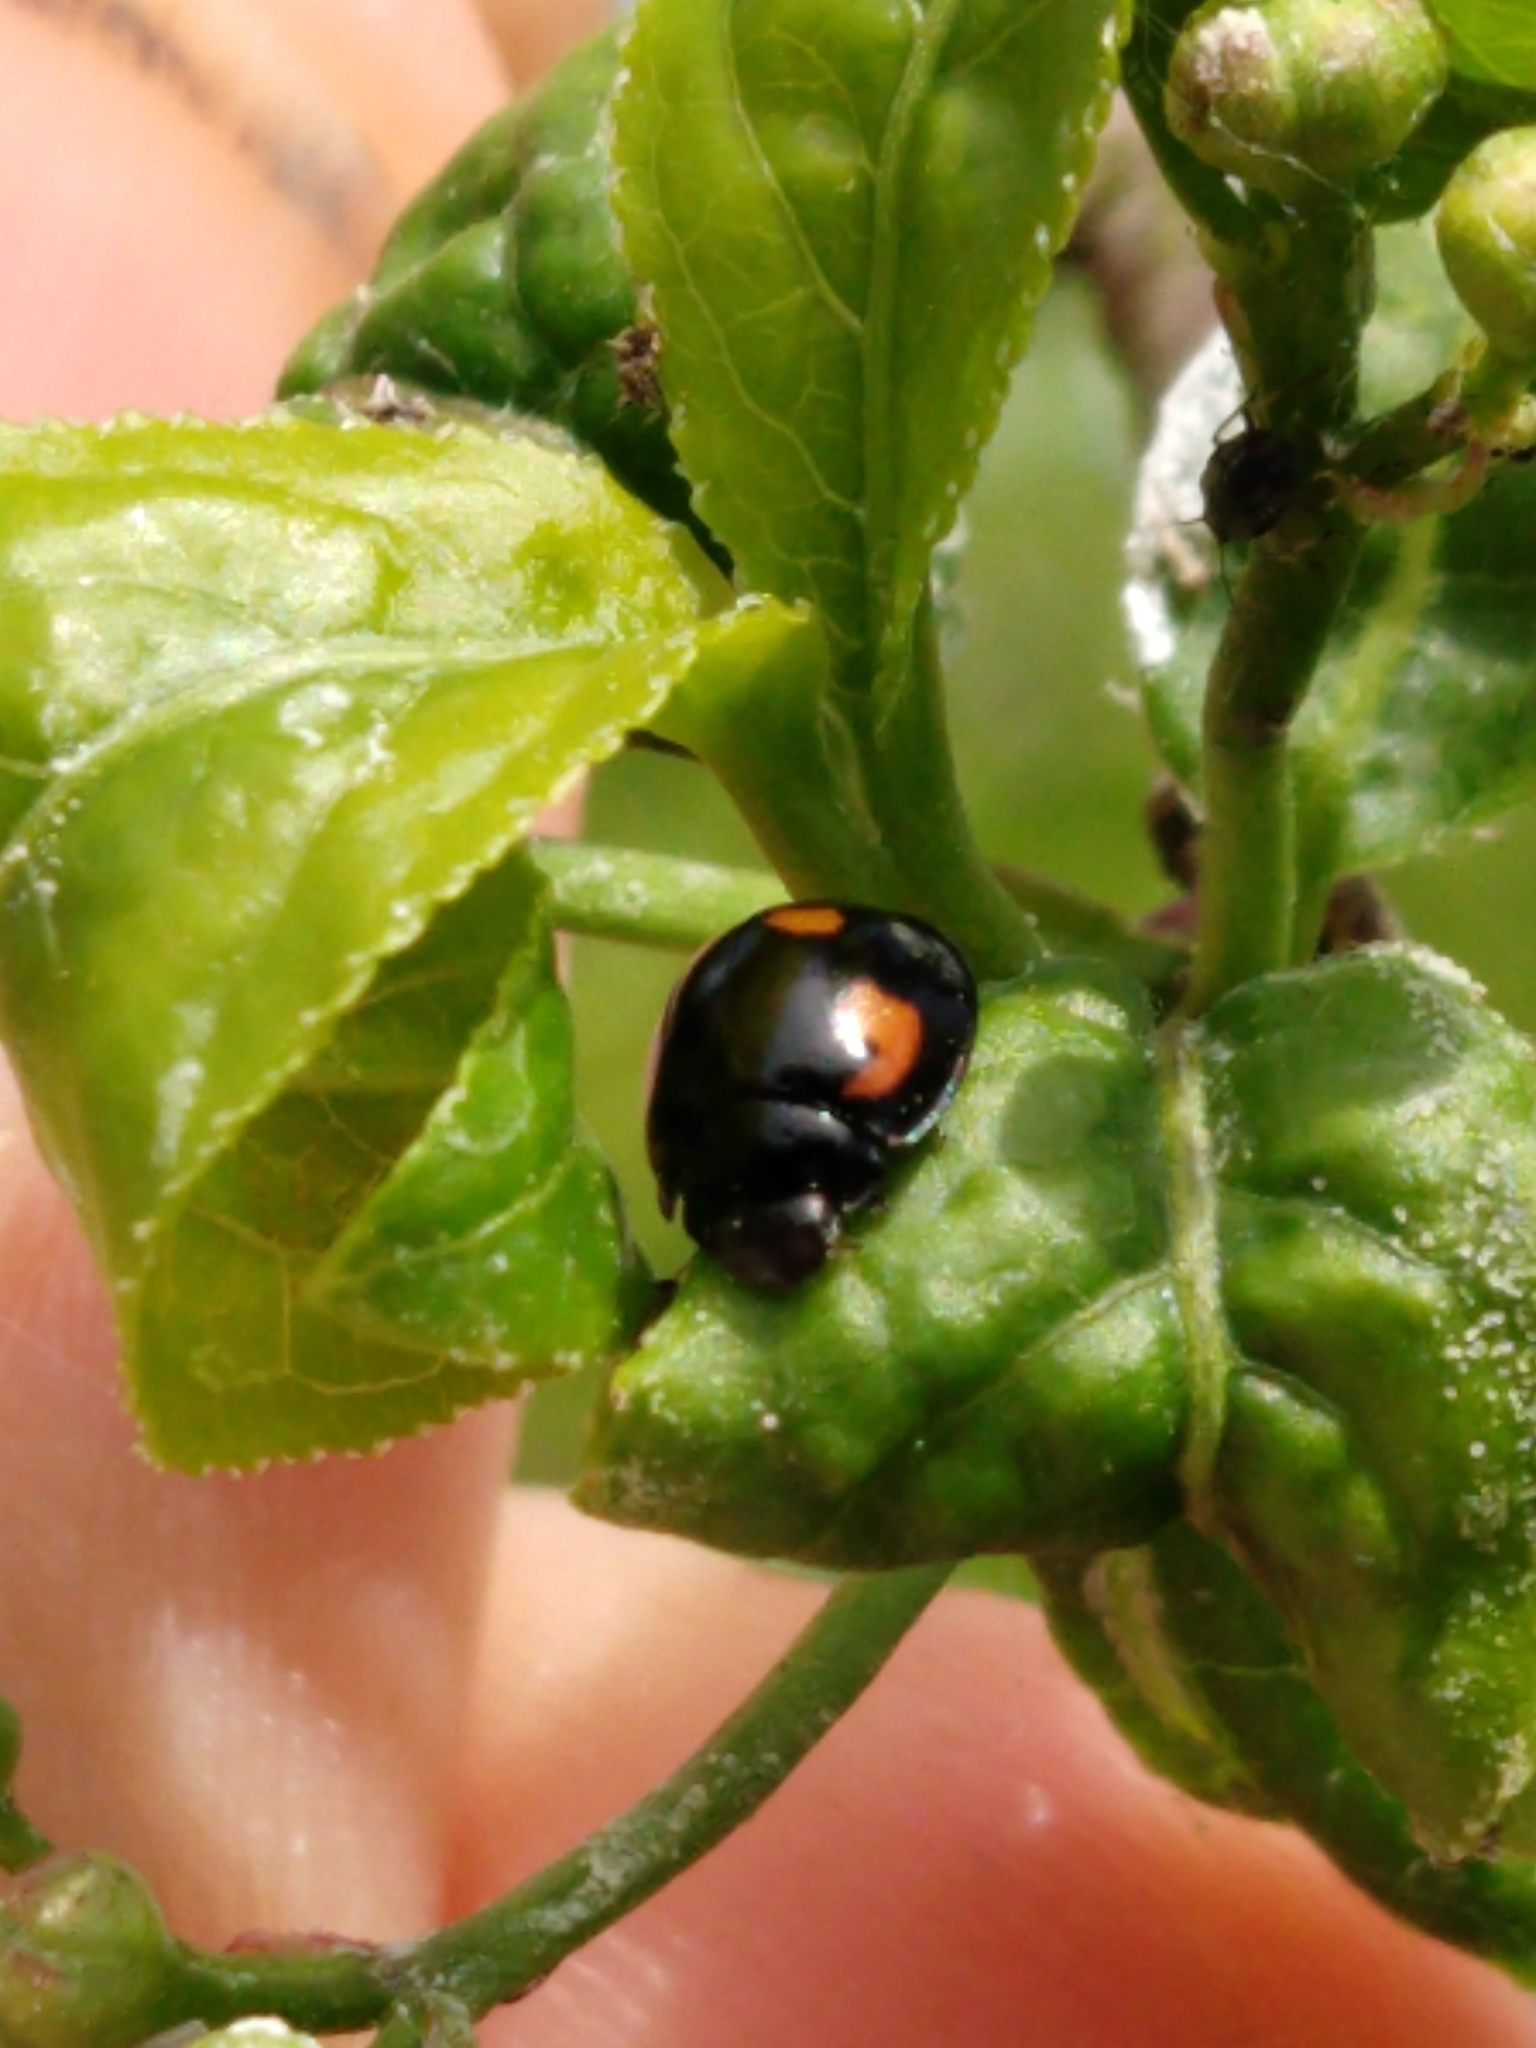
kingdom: Animalia
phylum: Arthropoda
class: Insecta
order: Coleoptera
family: Coccinellidae
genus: Brumus
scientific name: Brumus quadripustulatus
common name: Ladybird beetle
